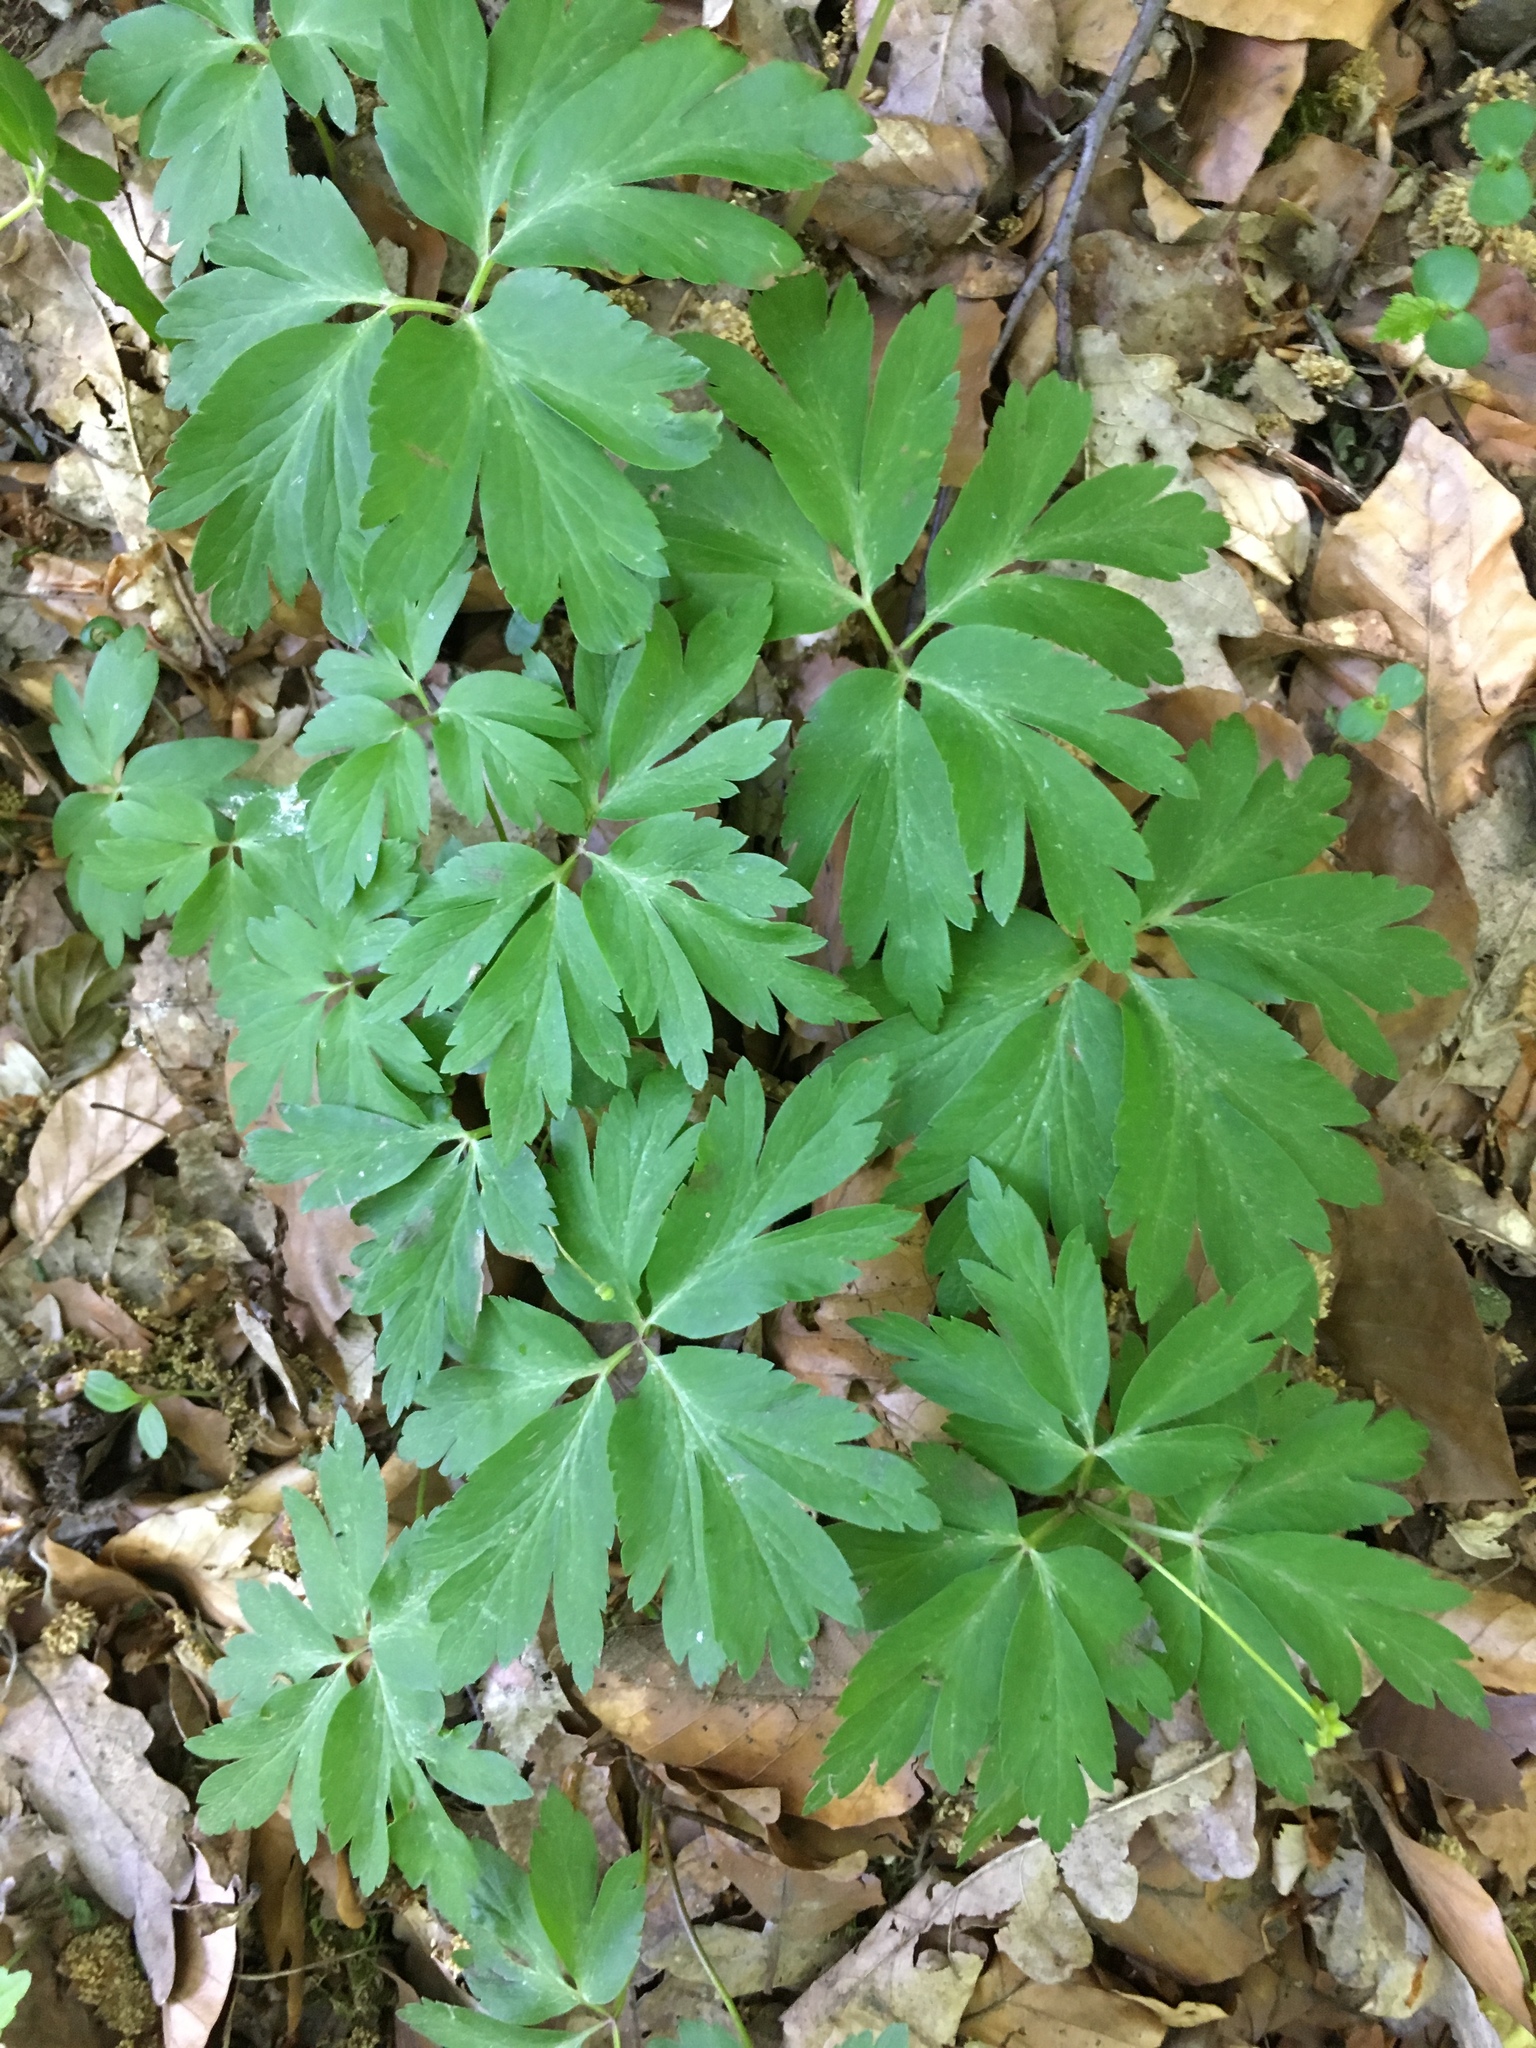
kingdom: Plantae
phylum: Tracheophyta
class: Magnoliopsida
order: Ranunculales
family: Ranunculaceae
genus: Anemone
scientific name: Anemone nemorosa
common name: Wood anemone
